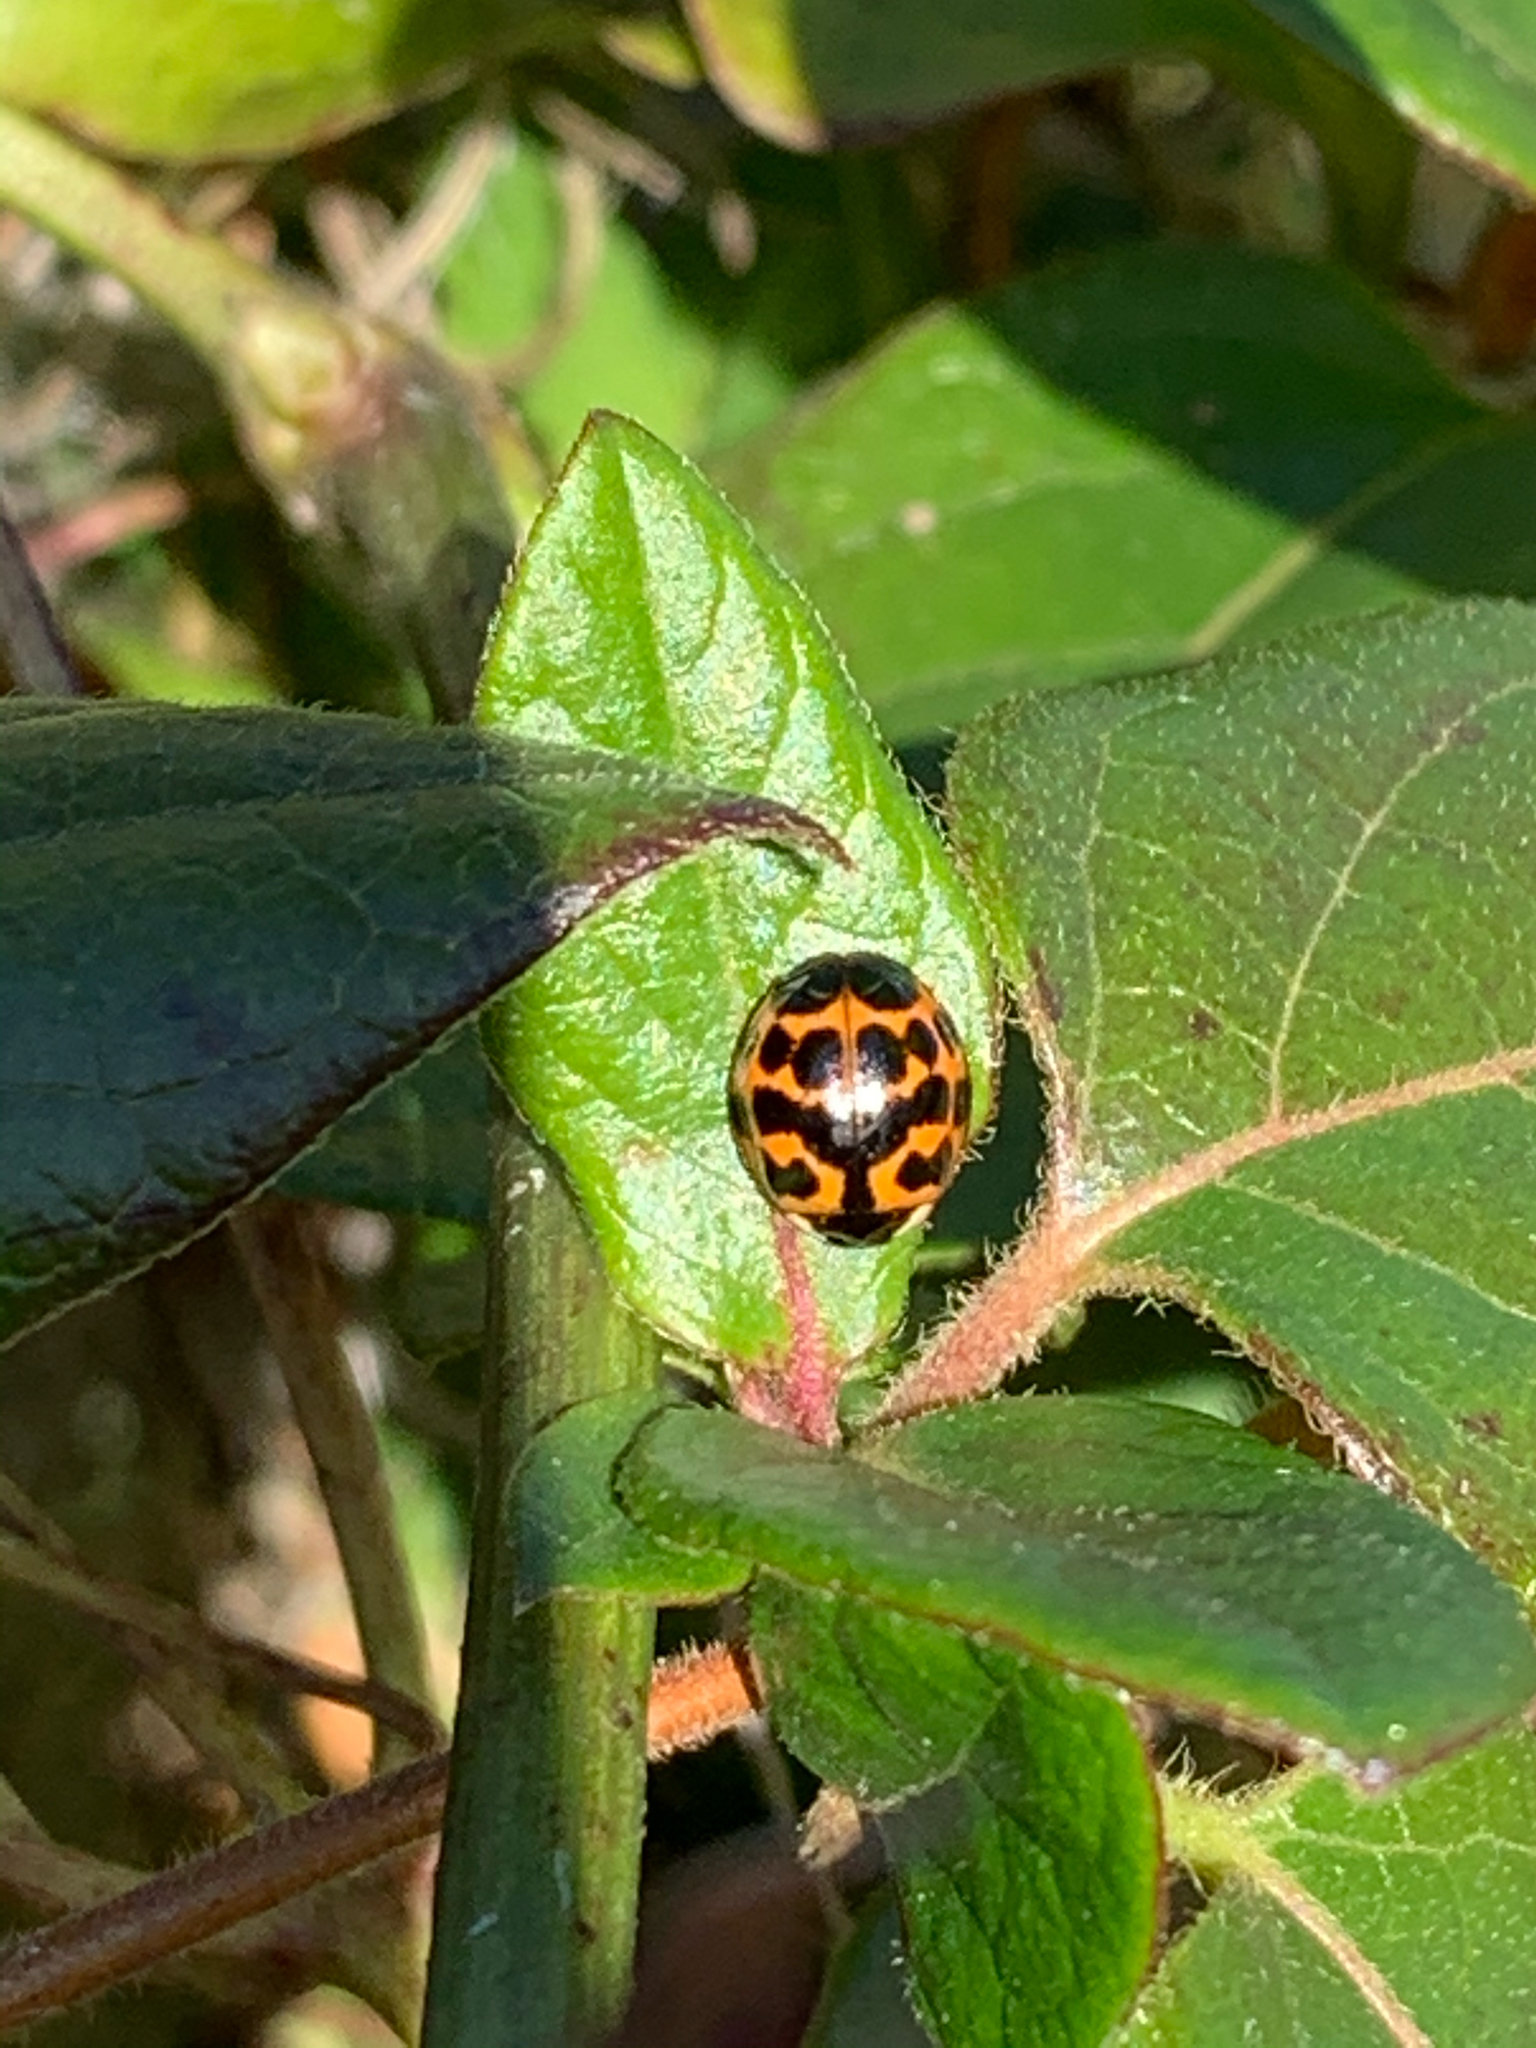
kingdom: Animalia
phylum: Arthropoda
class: Insecta
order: Coleoptera
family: Coccinellidae
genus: Harmonia
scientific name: Harmonia axyridis
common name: Harlequin ladybird
